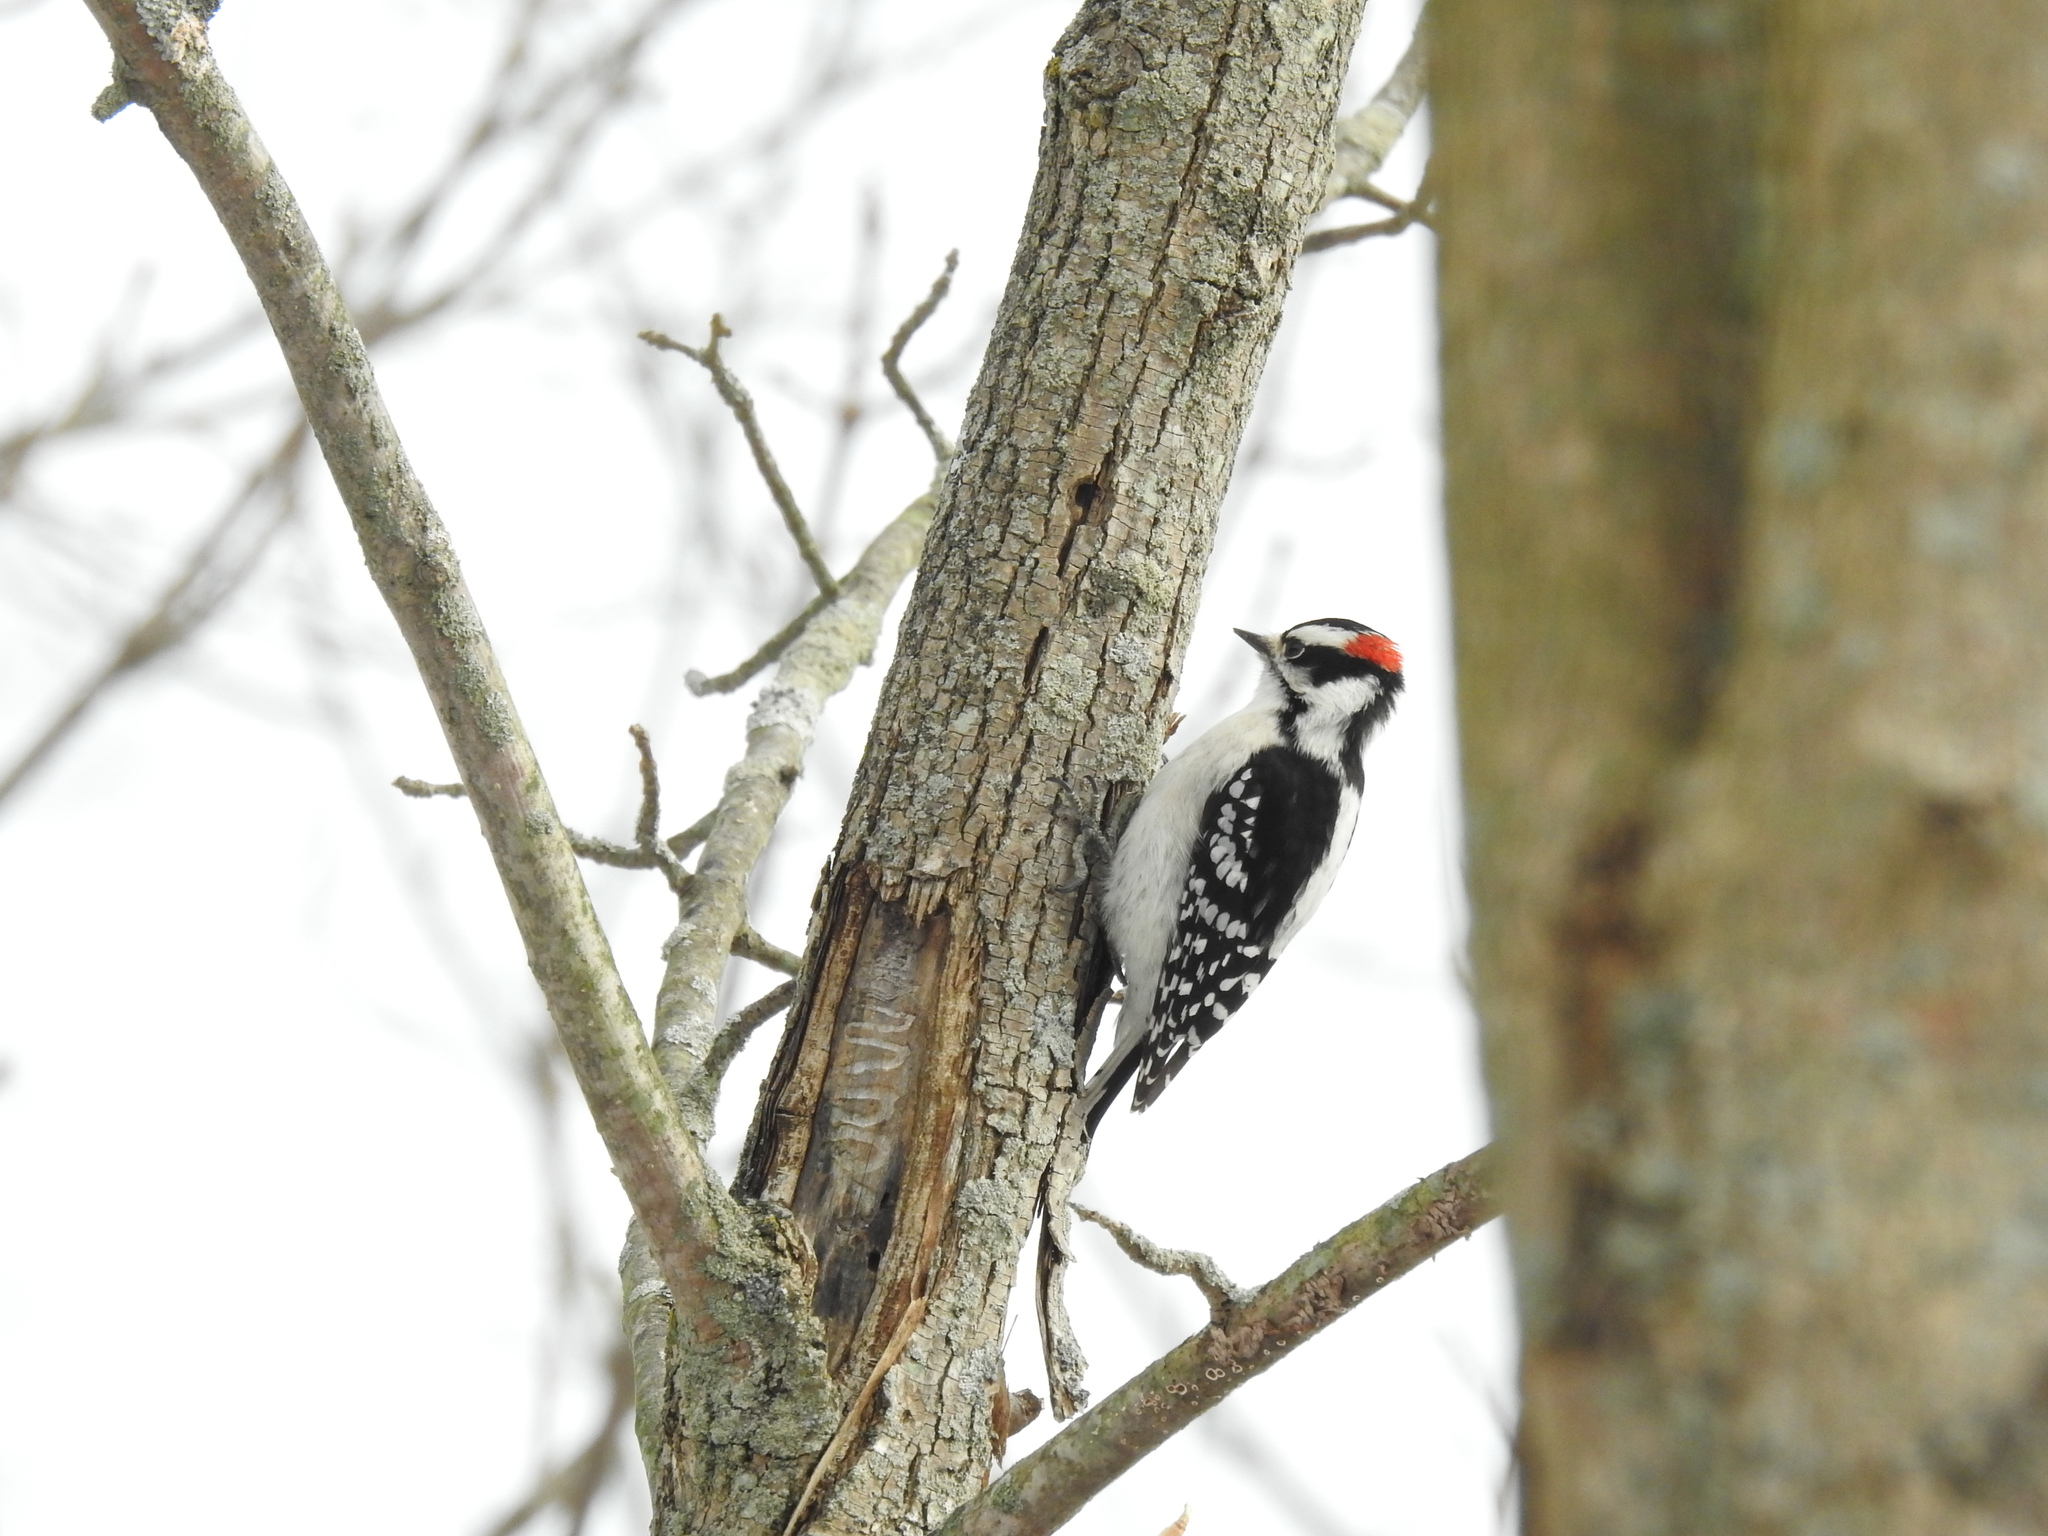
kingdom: Animalia
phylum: Chordata
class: Aves
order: Piciformes
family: Picidae
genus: Dryobates
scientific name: Dryobates pubescens
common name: Downy woodpecker
